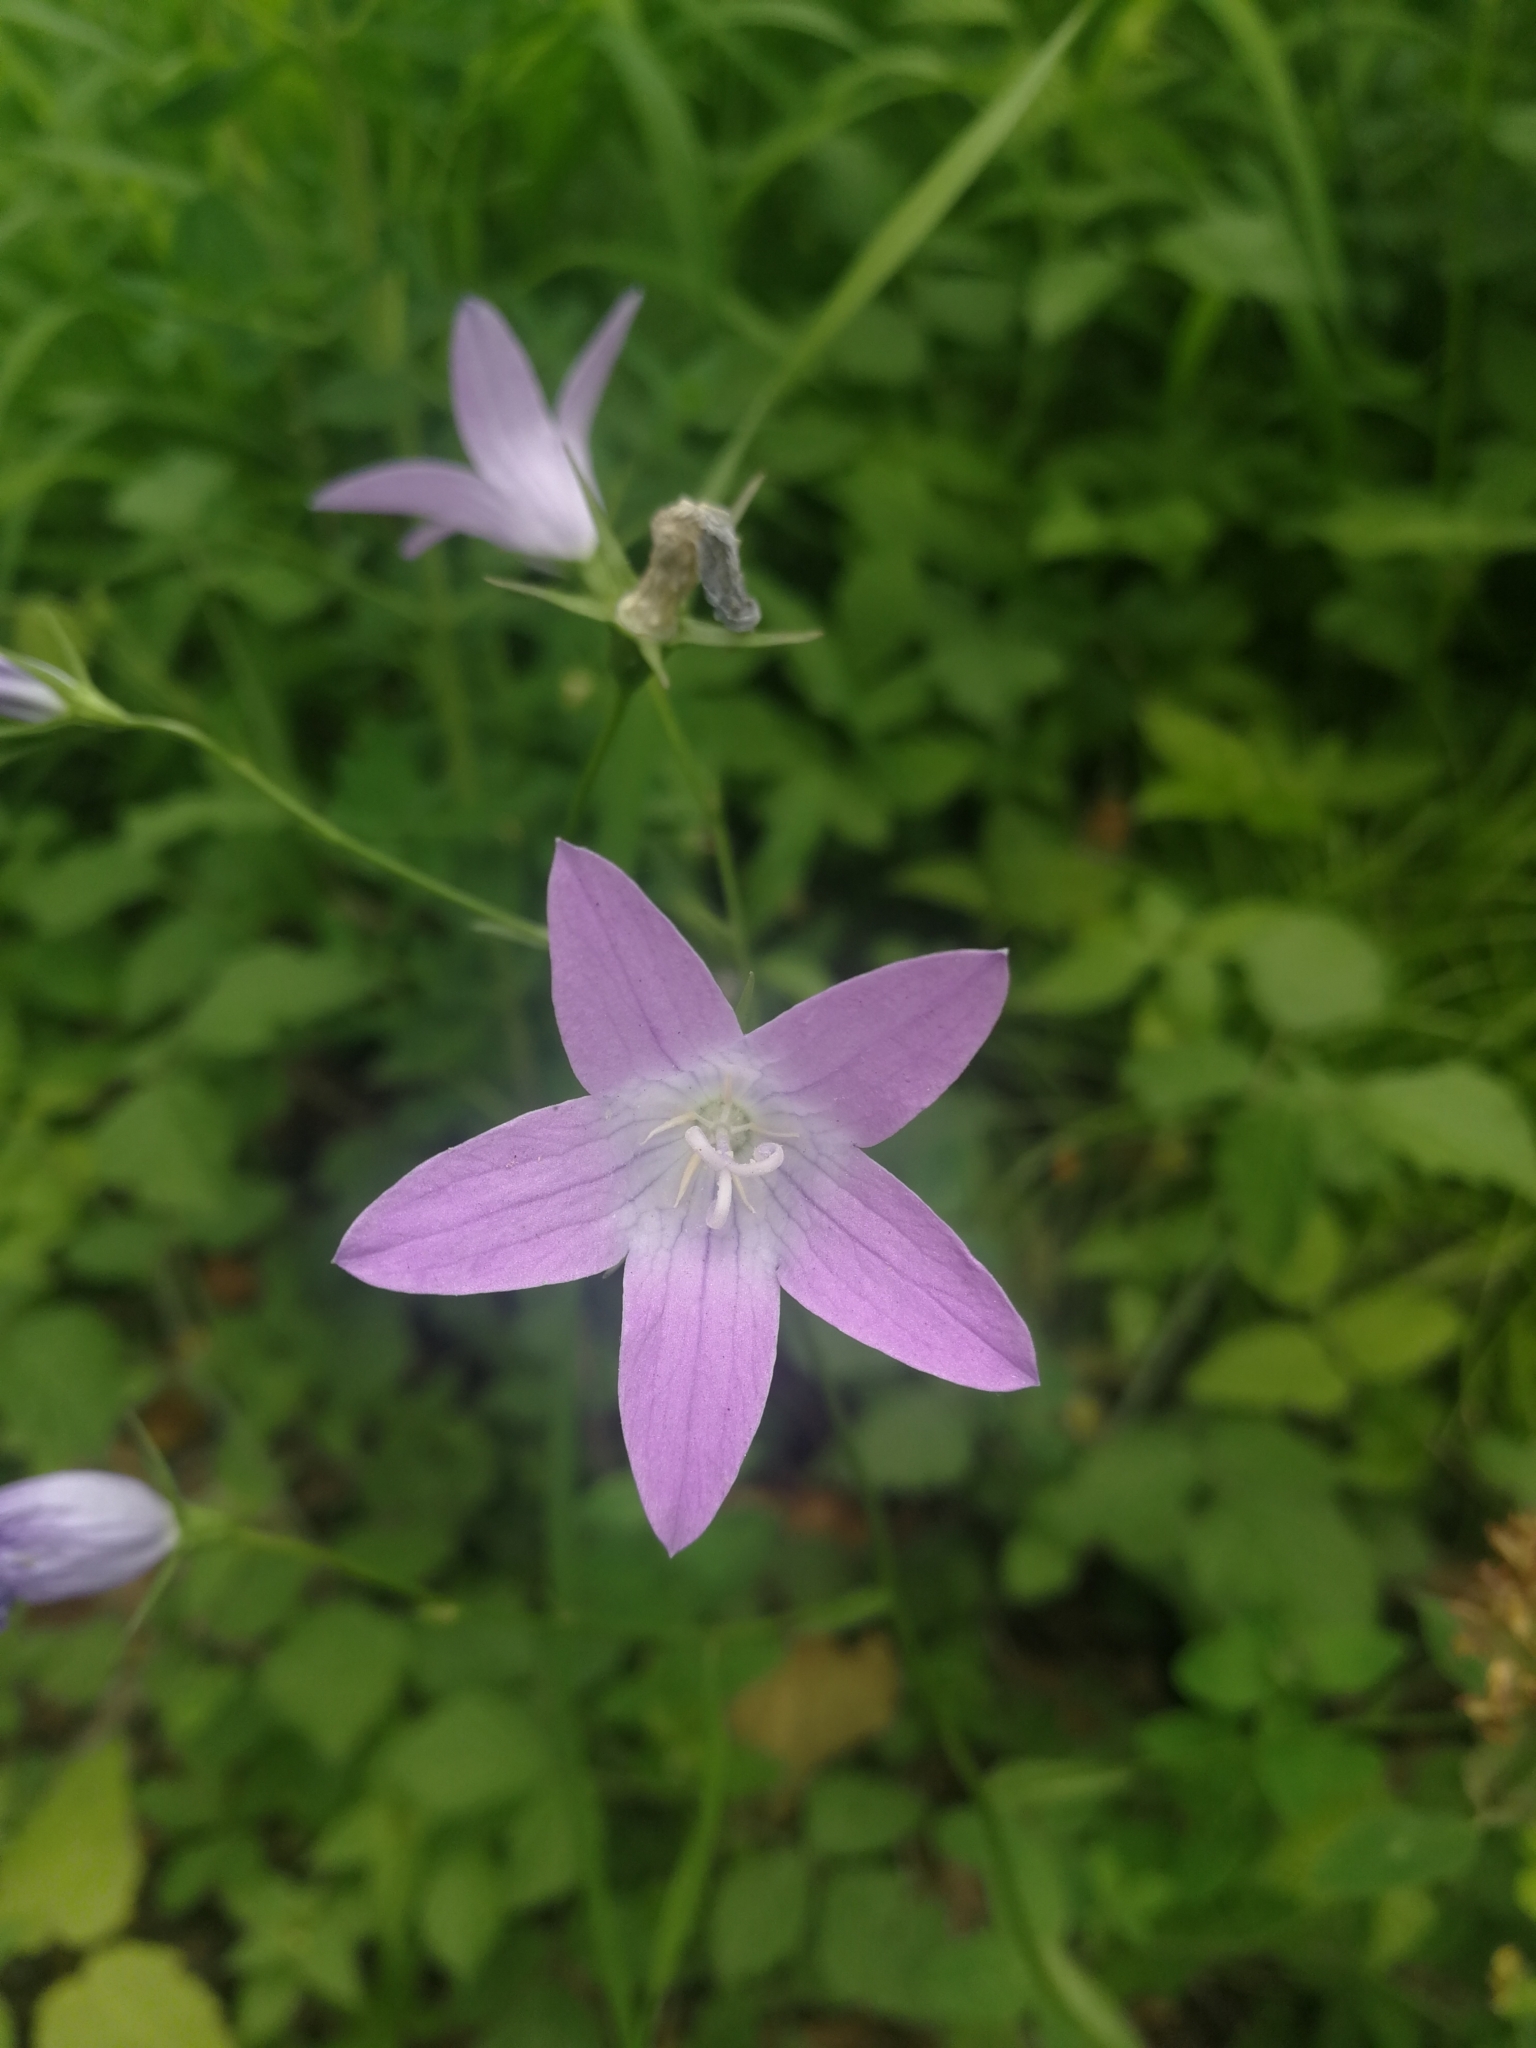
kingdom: Plantae
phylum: Tracheophyta
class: Magnoliopsida
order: Asterales
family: Campanulaceae
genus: Campanula
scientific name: Campanula patula
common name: Spreading bellflower
